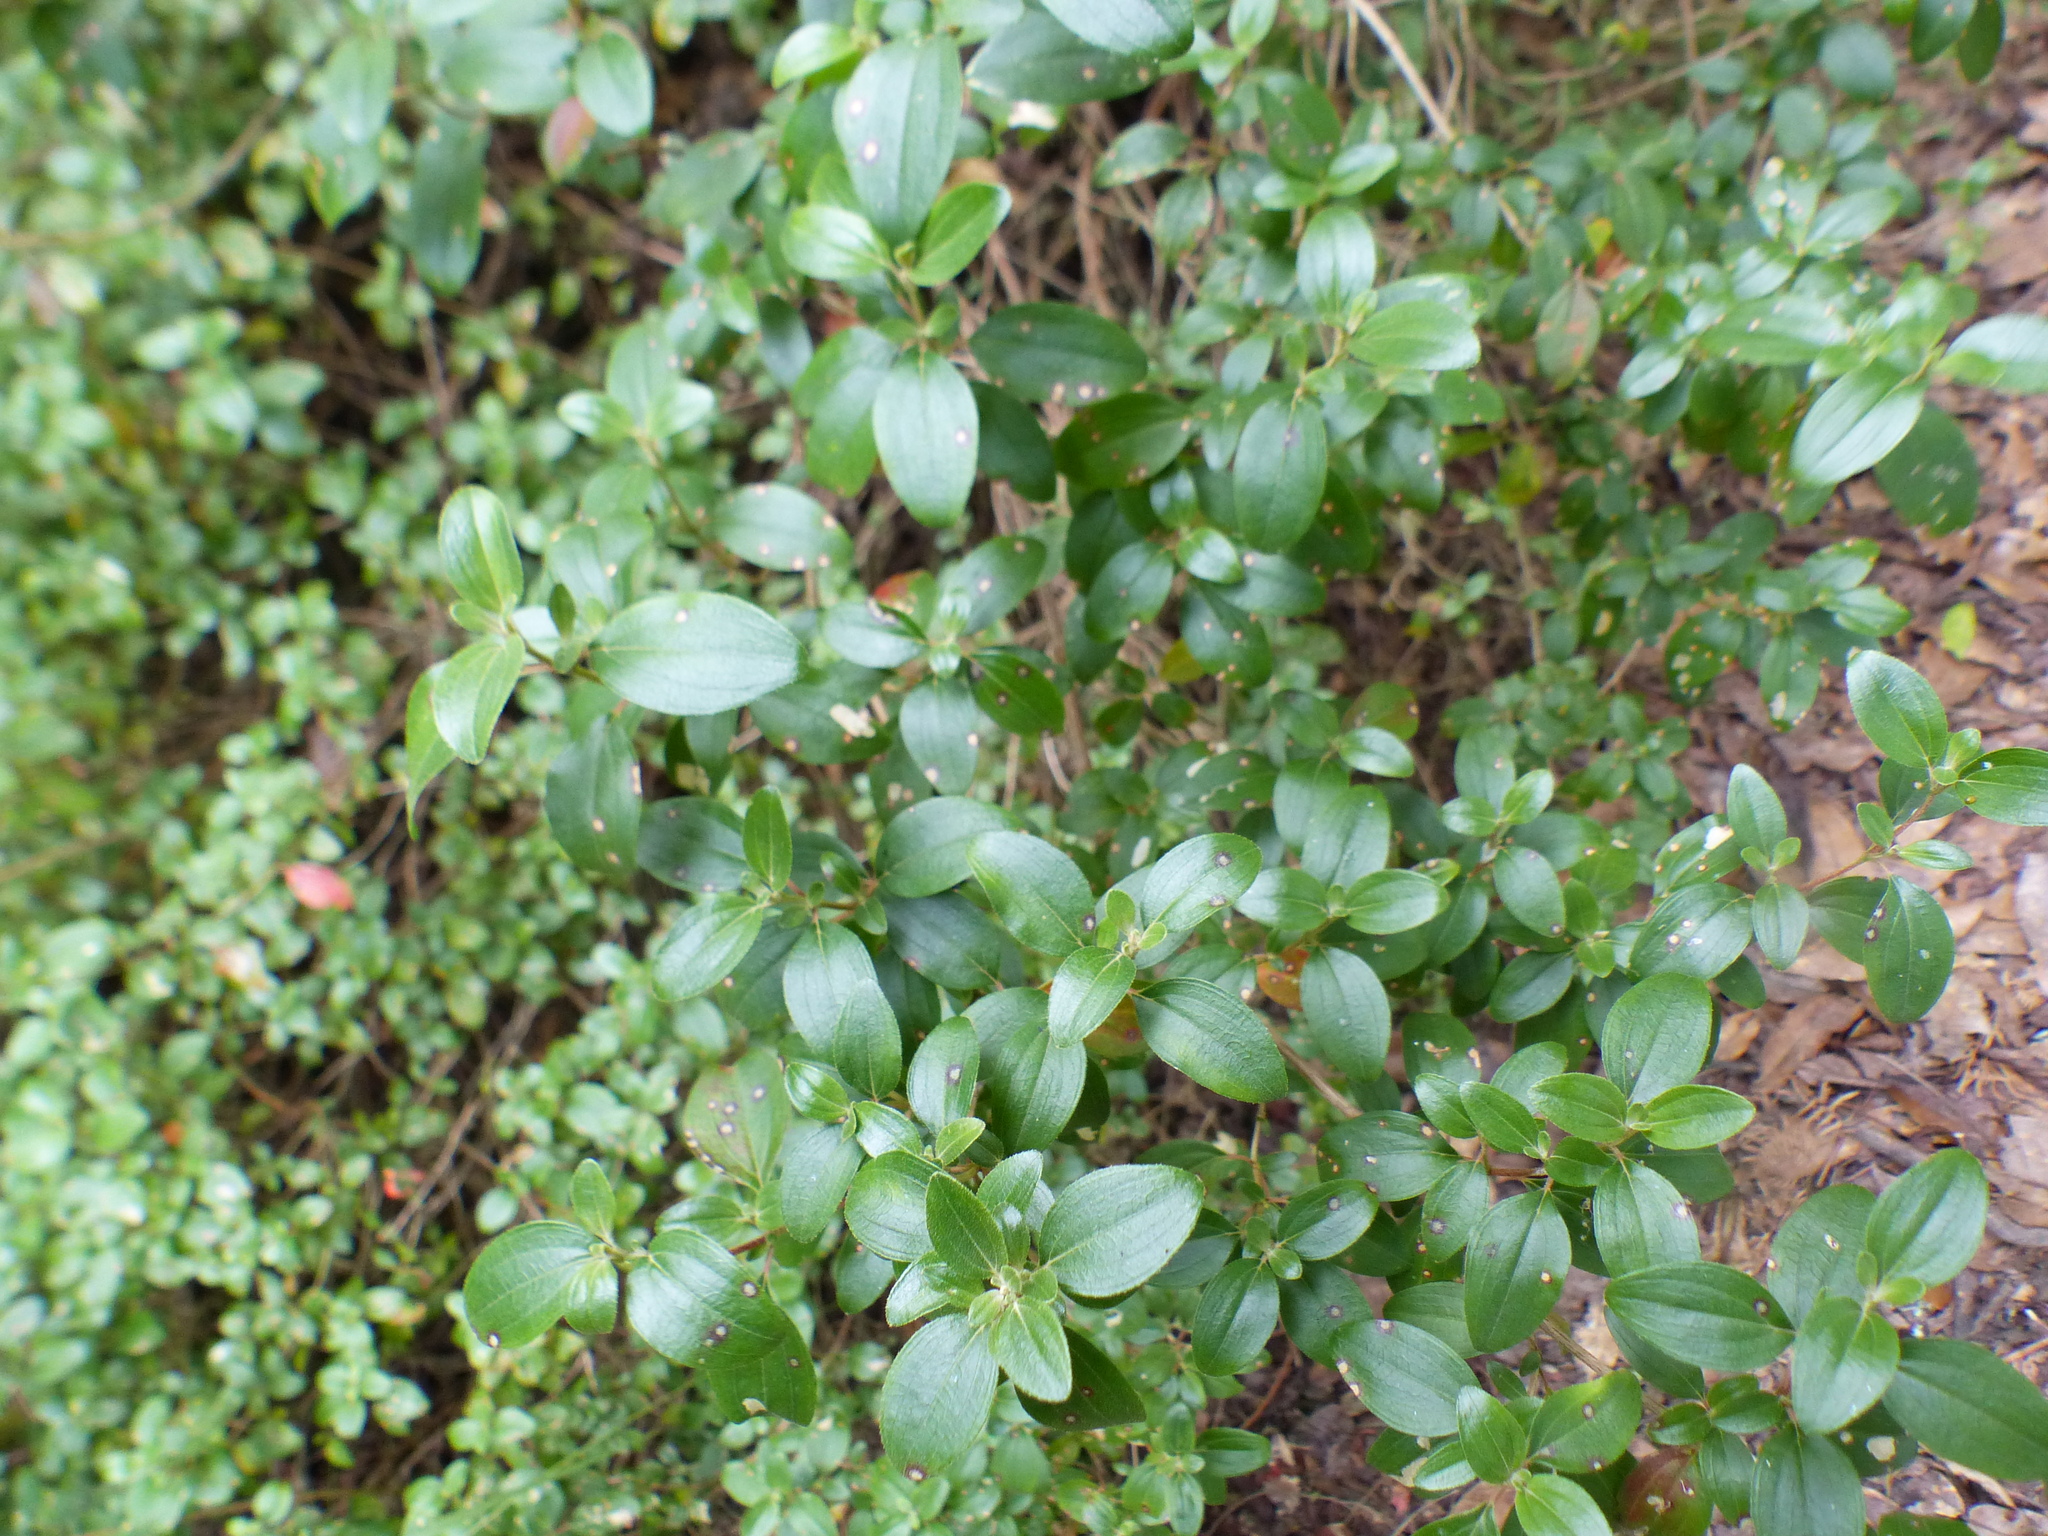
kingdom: Plantae
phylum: Tracheophyta
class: Magnoliopsida
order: Myrtales
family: Melastomataceae
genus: Monochaetum
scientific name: Monochaetum myrtoideum
